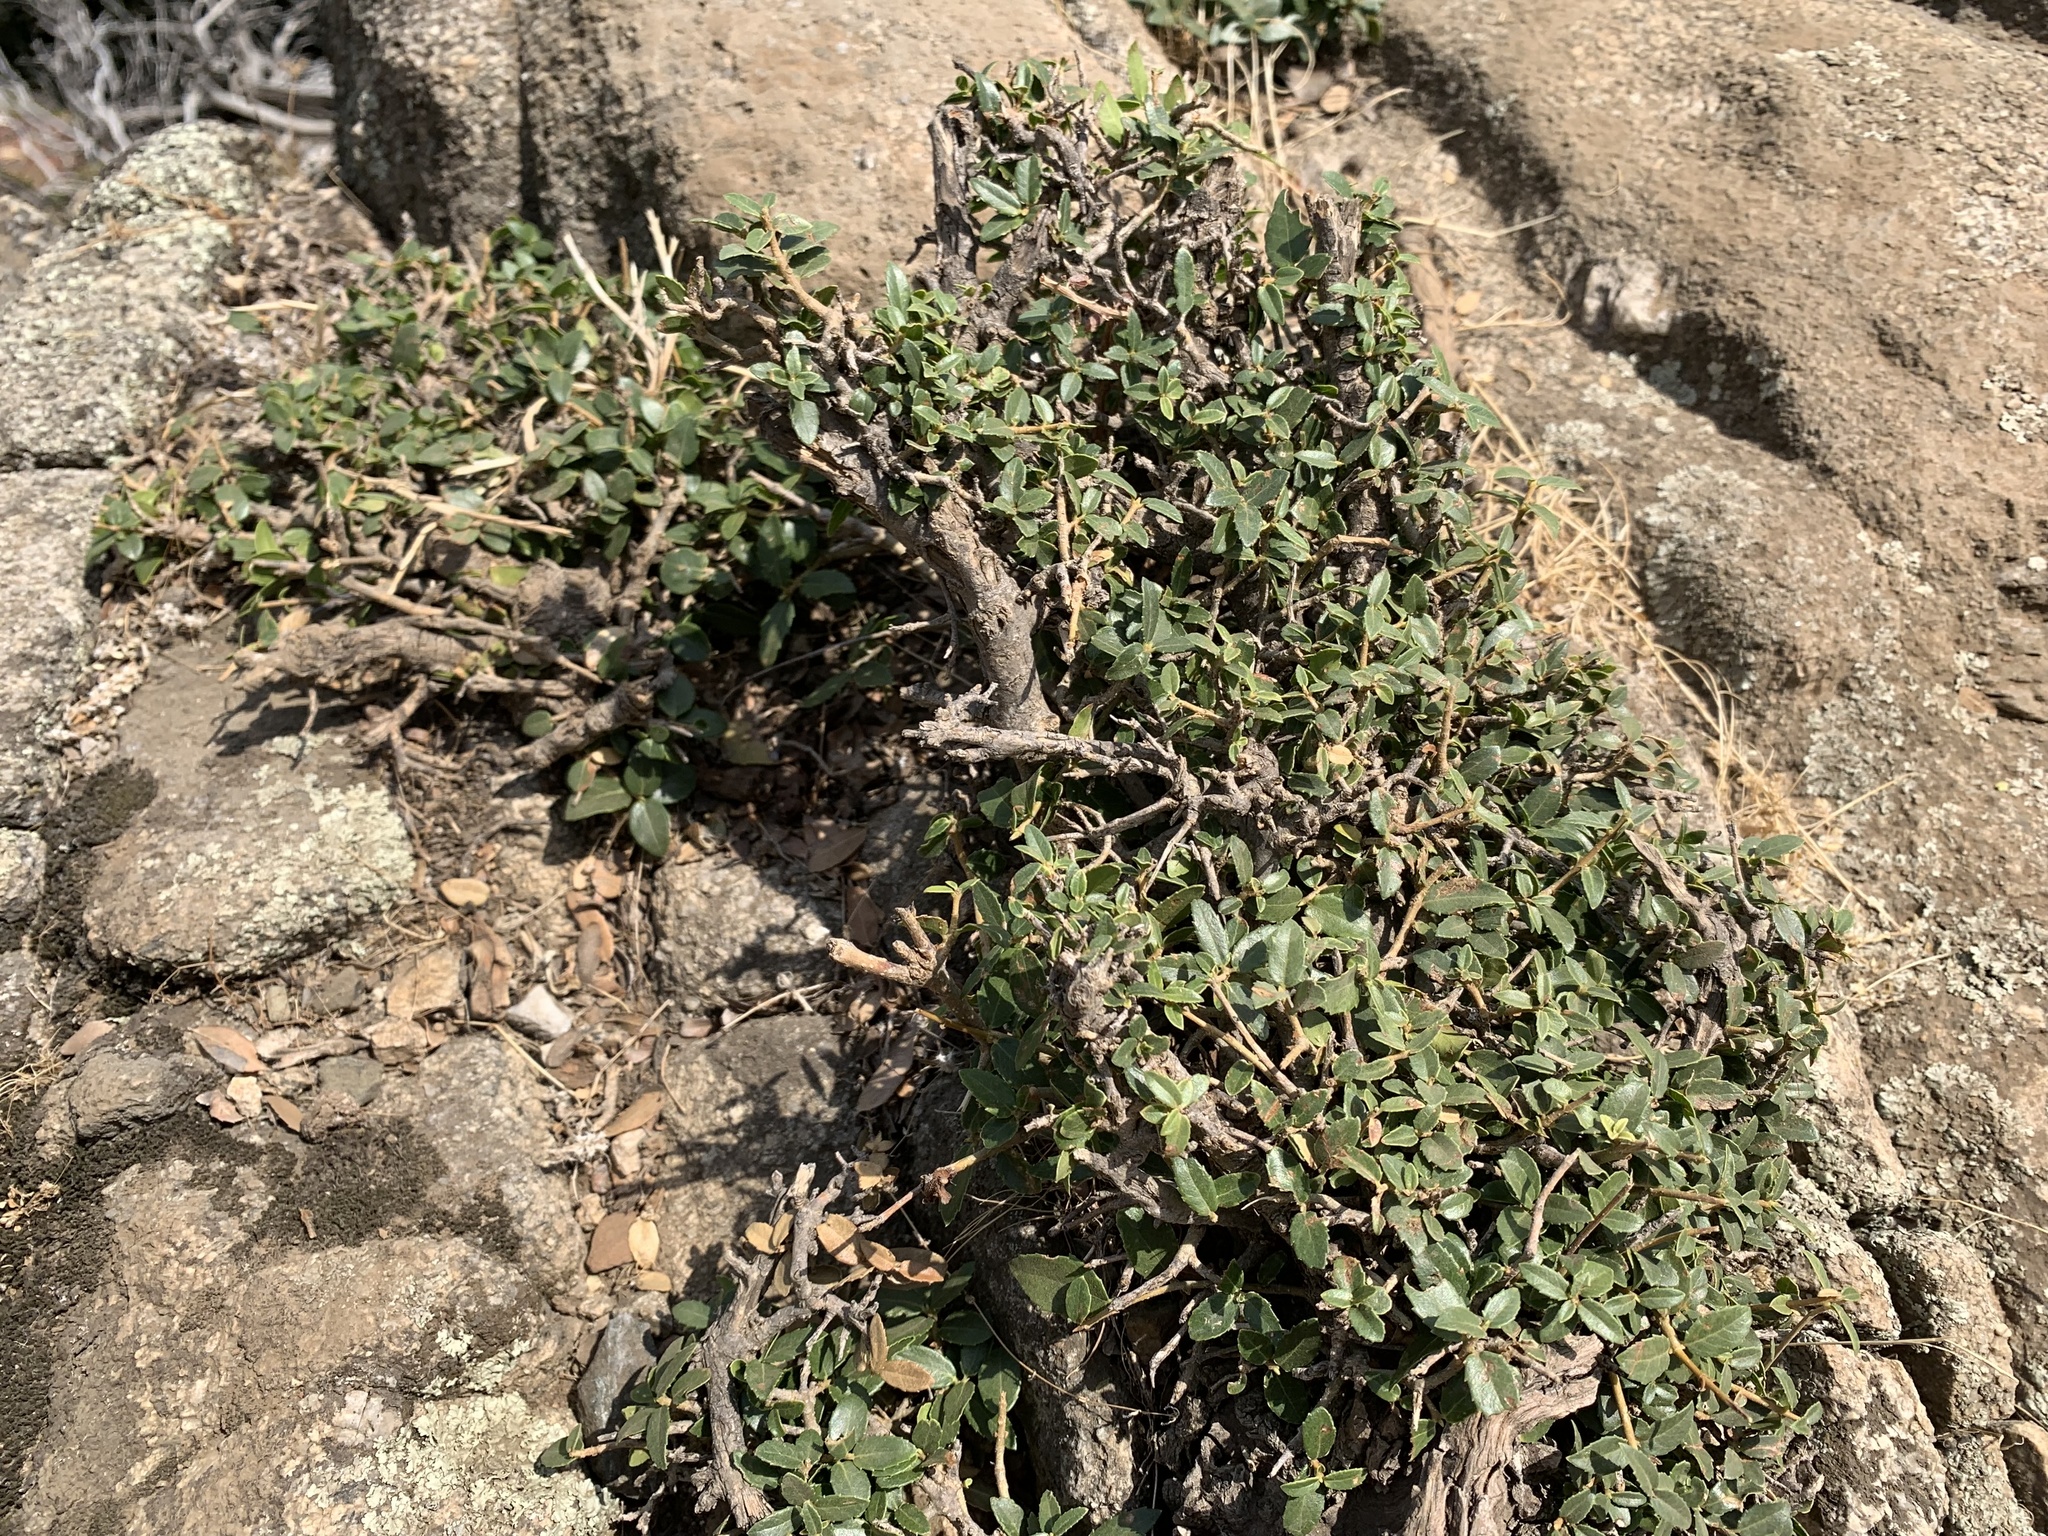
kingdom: Plantae
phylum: Tracheophyta
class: Magnoliopsida
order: Fagales
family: Fagaceae
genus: Quercus
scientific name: Quercus coccifera
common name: Kermes oak
